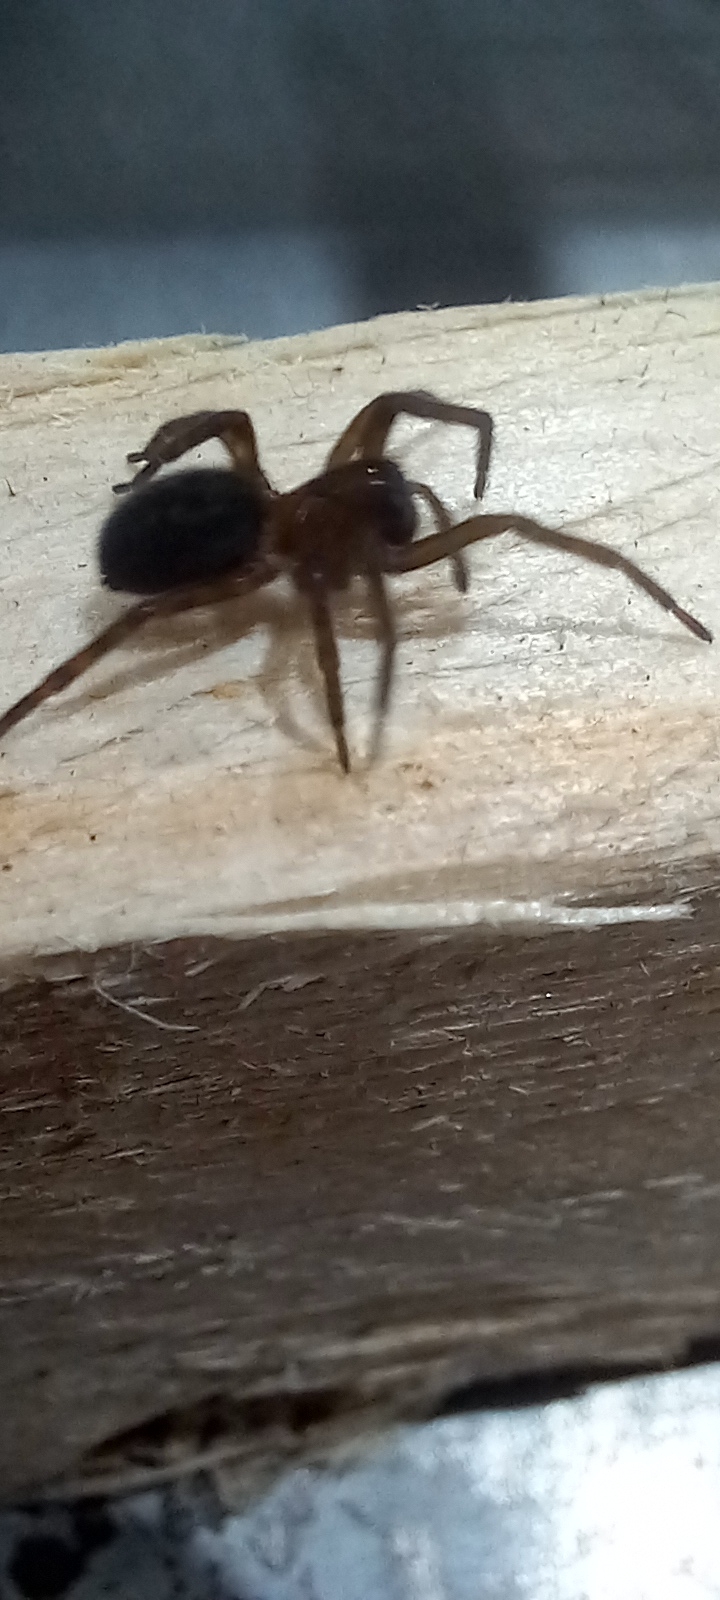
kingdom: Animalia
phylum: Arthropoda
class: Arachnida
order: Araneae
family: Amaurobiidae
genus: Amaurobius
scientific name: Amaurobius ferox
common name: Black laceweaver
